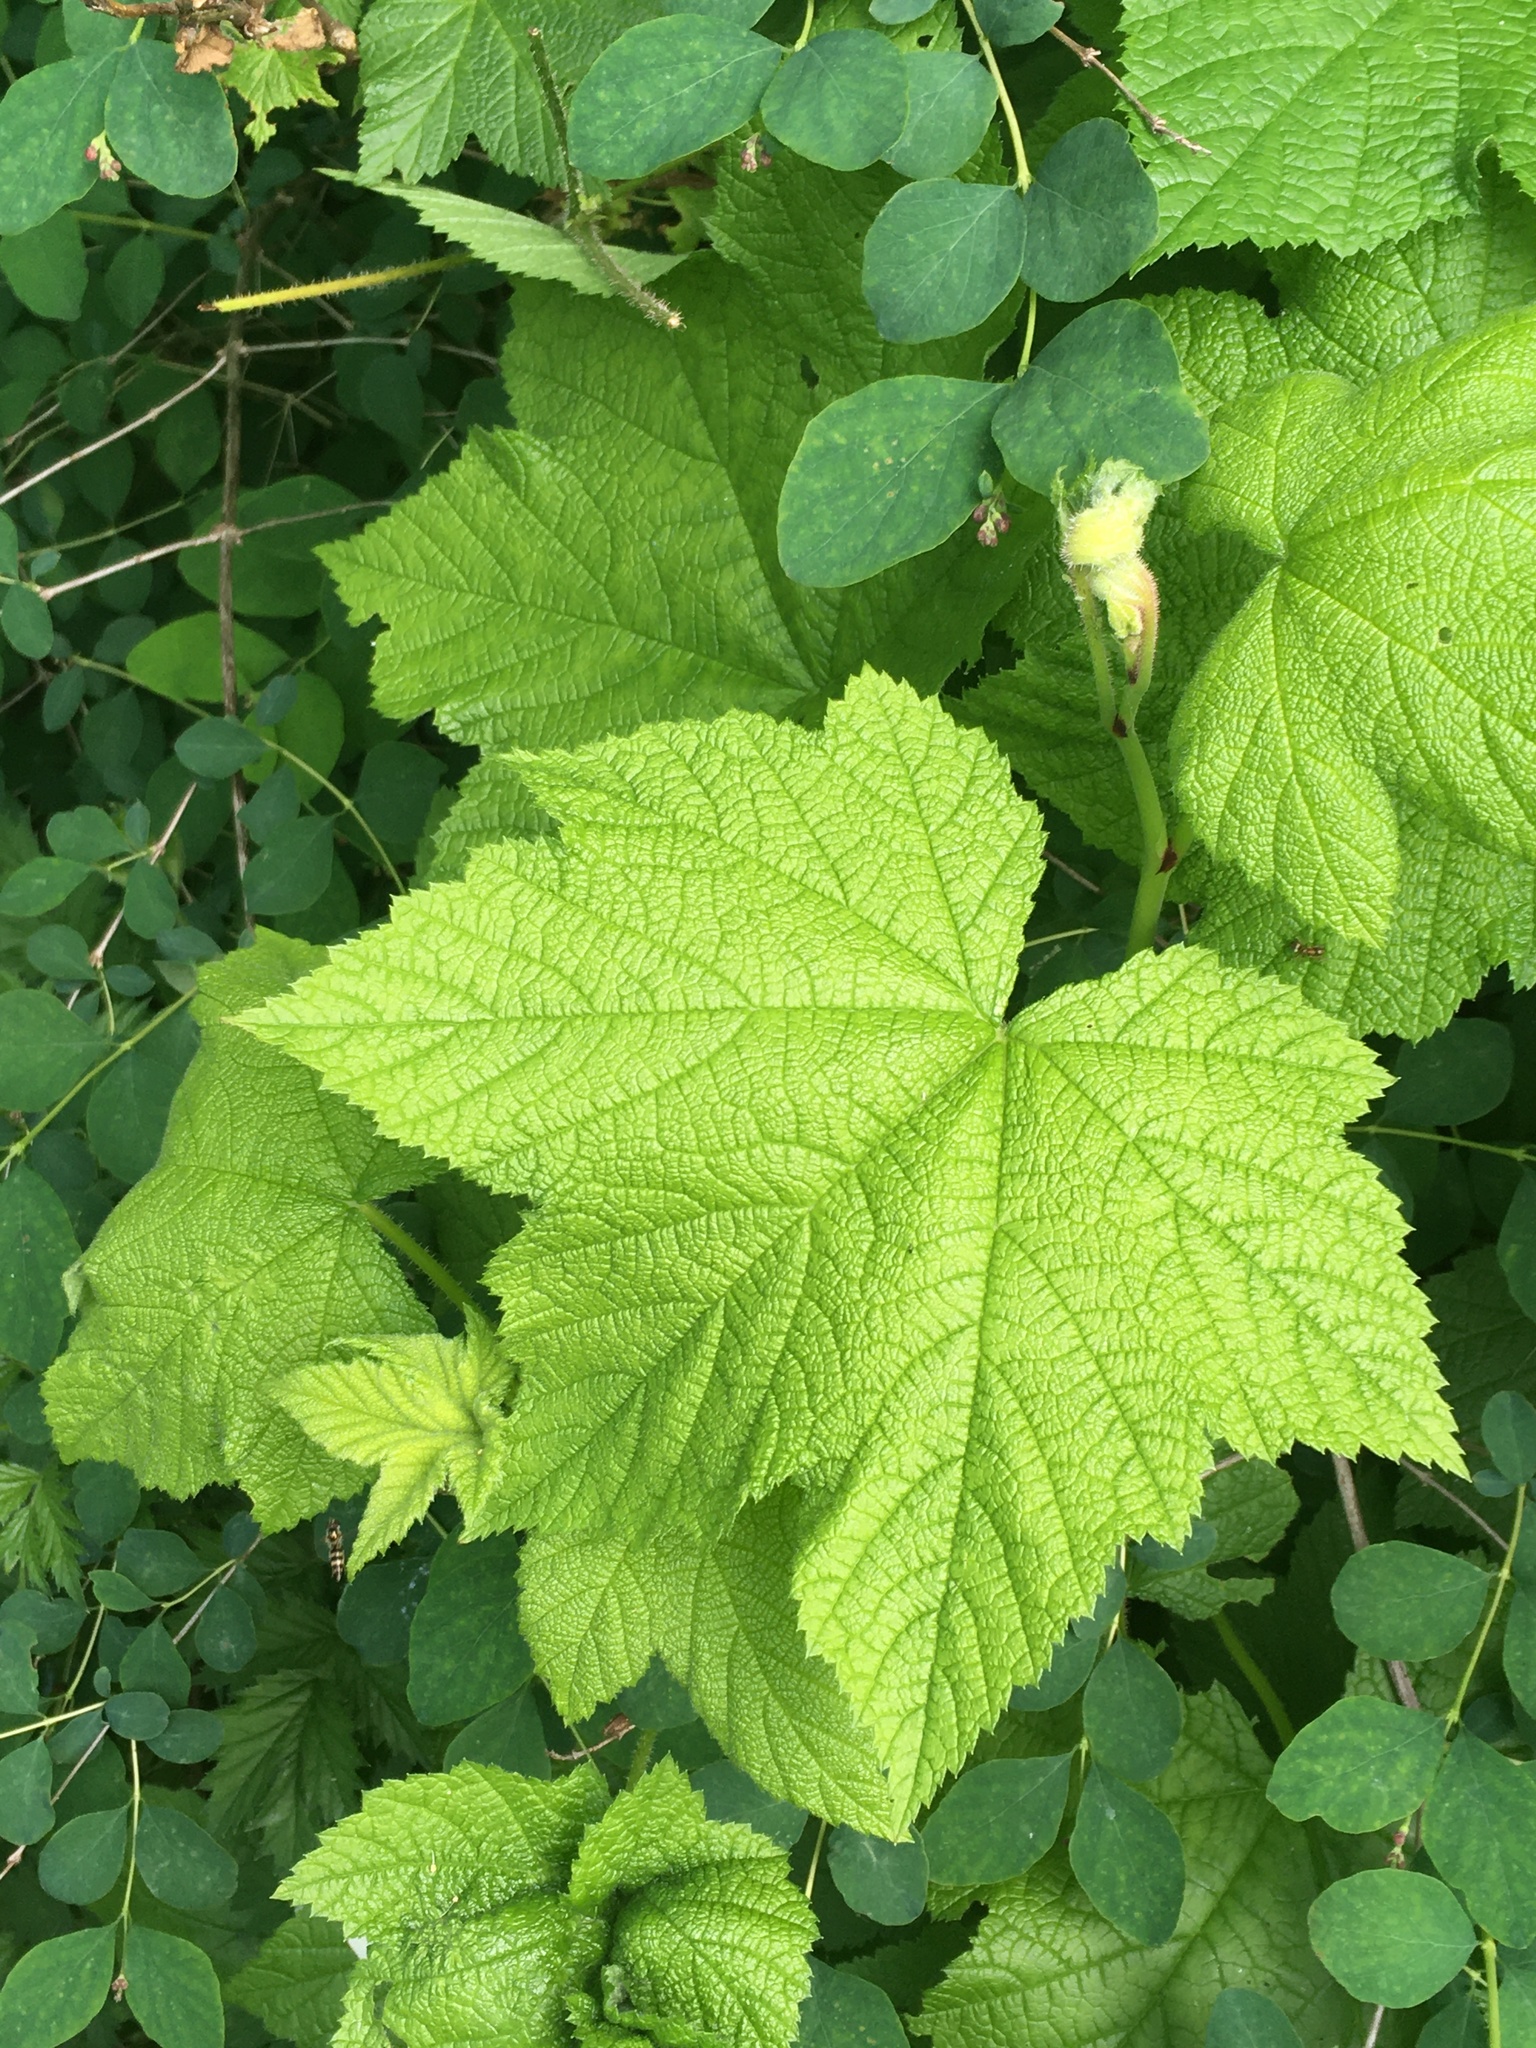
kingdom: Plantae
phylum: Tracheophyta
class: Magnoliopsida
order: Rosales
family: Rosaceae
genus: Rubus
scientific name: Rubus parviflorus
